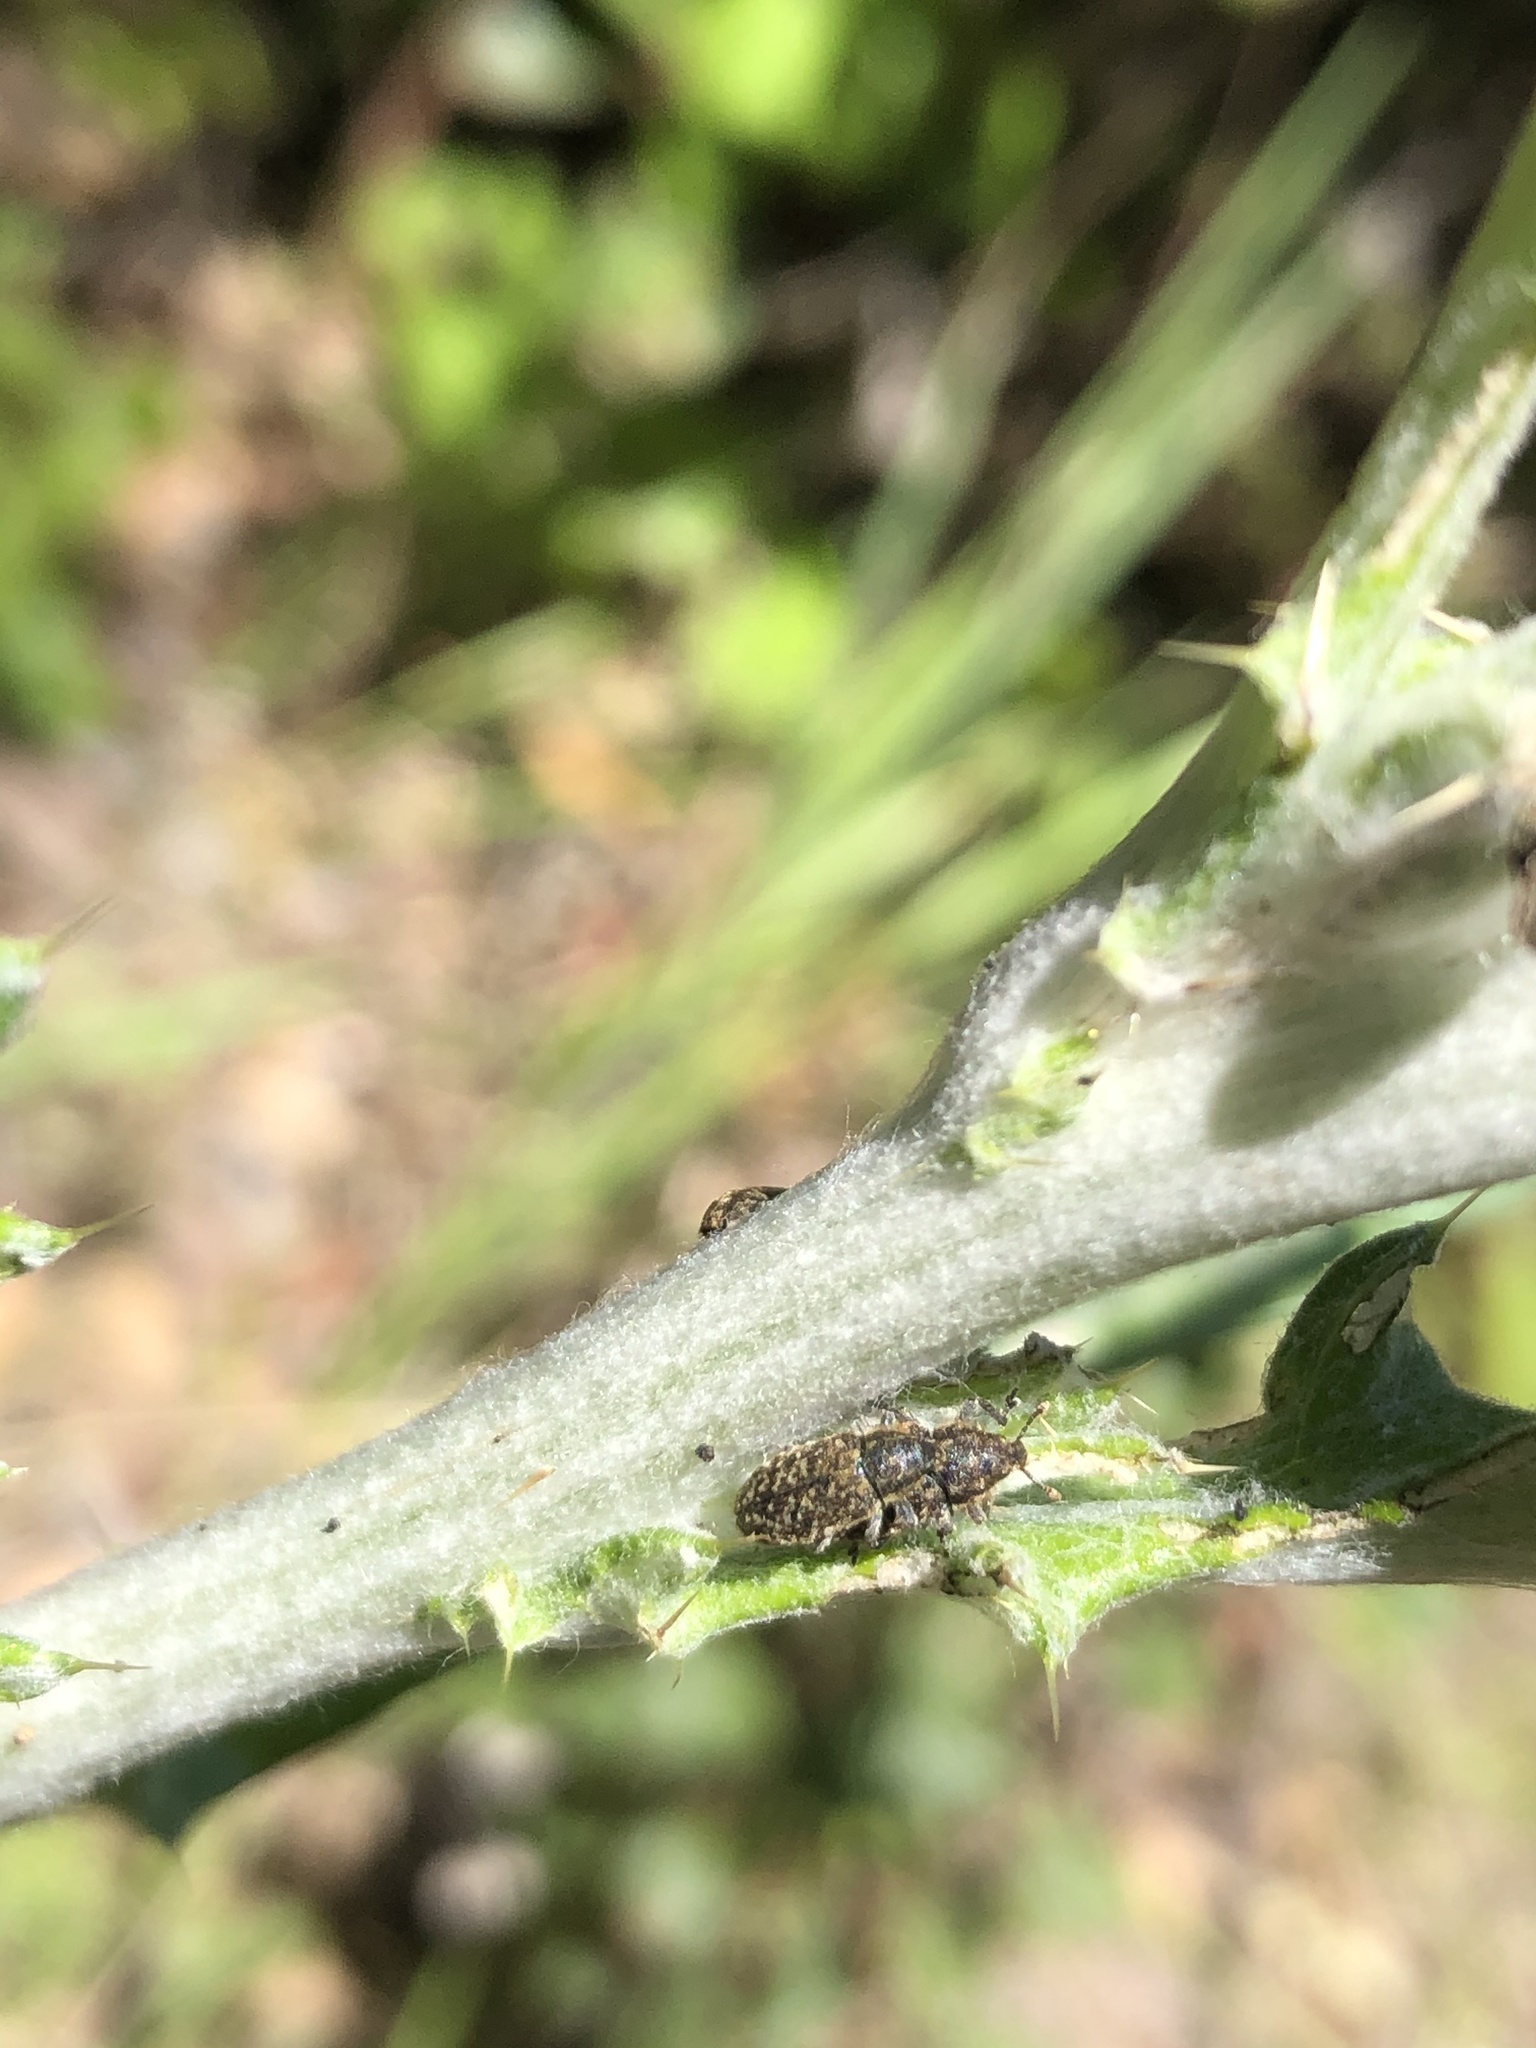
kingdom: Animalia
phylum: Arthropoda
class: Insecta
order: Coleoptera
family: Curculionidae
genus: Rhinocyllus
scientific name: Rhinocyllus conicus
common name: Weevil
